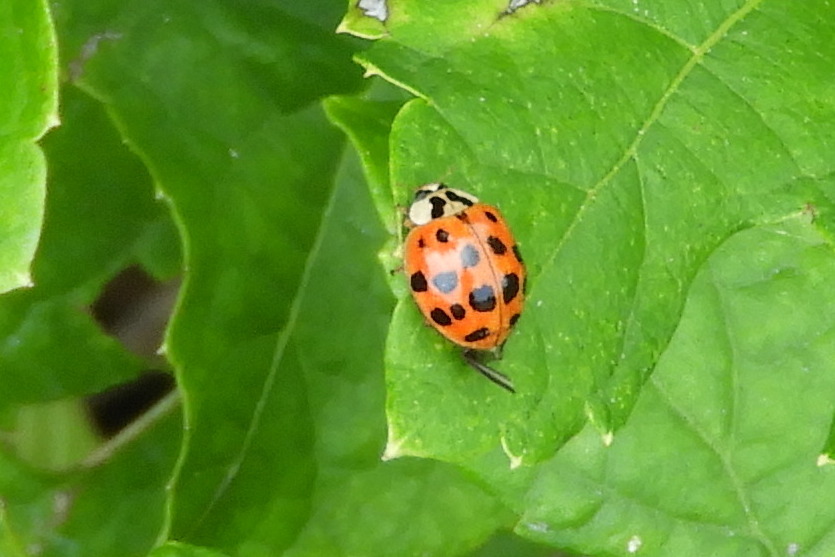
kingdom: Animalia
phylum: Arthropoda
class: Insecta
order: Coleoptera
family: Coccinellidae
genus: Harmonia
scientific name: Harmonia axyridis
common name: Harlequin ladybird
